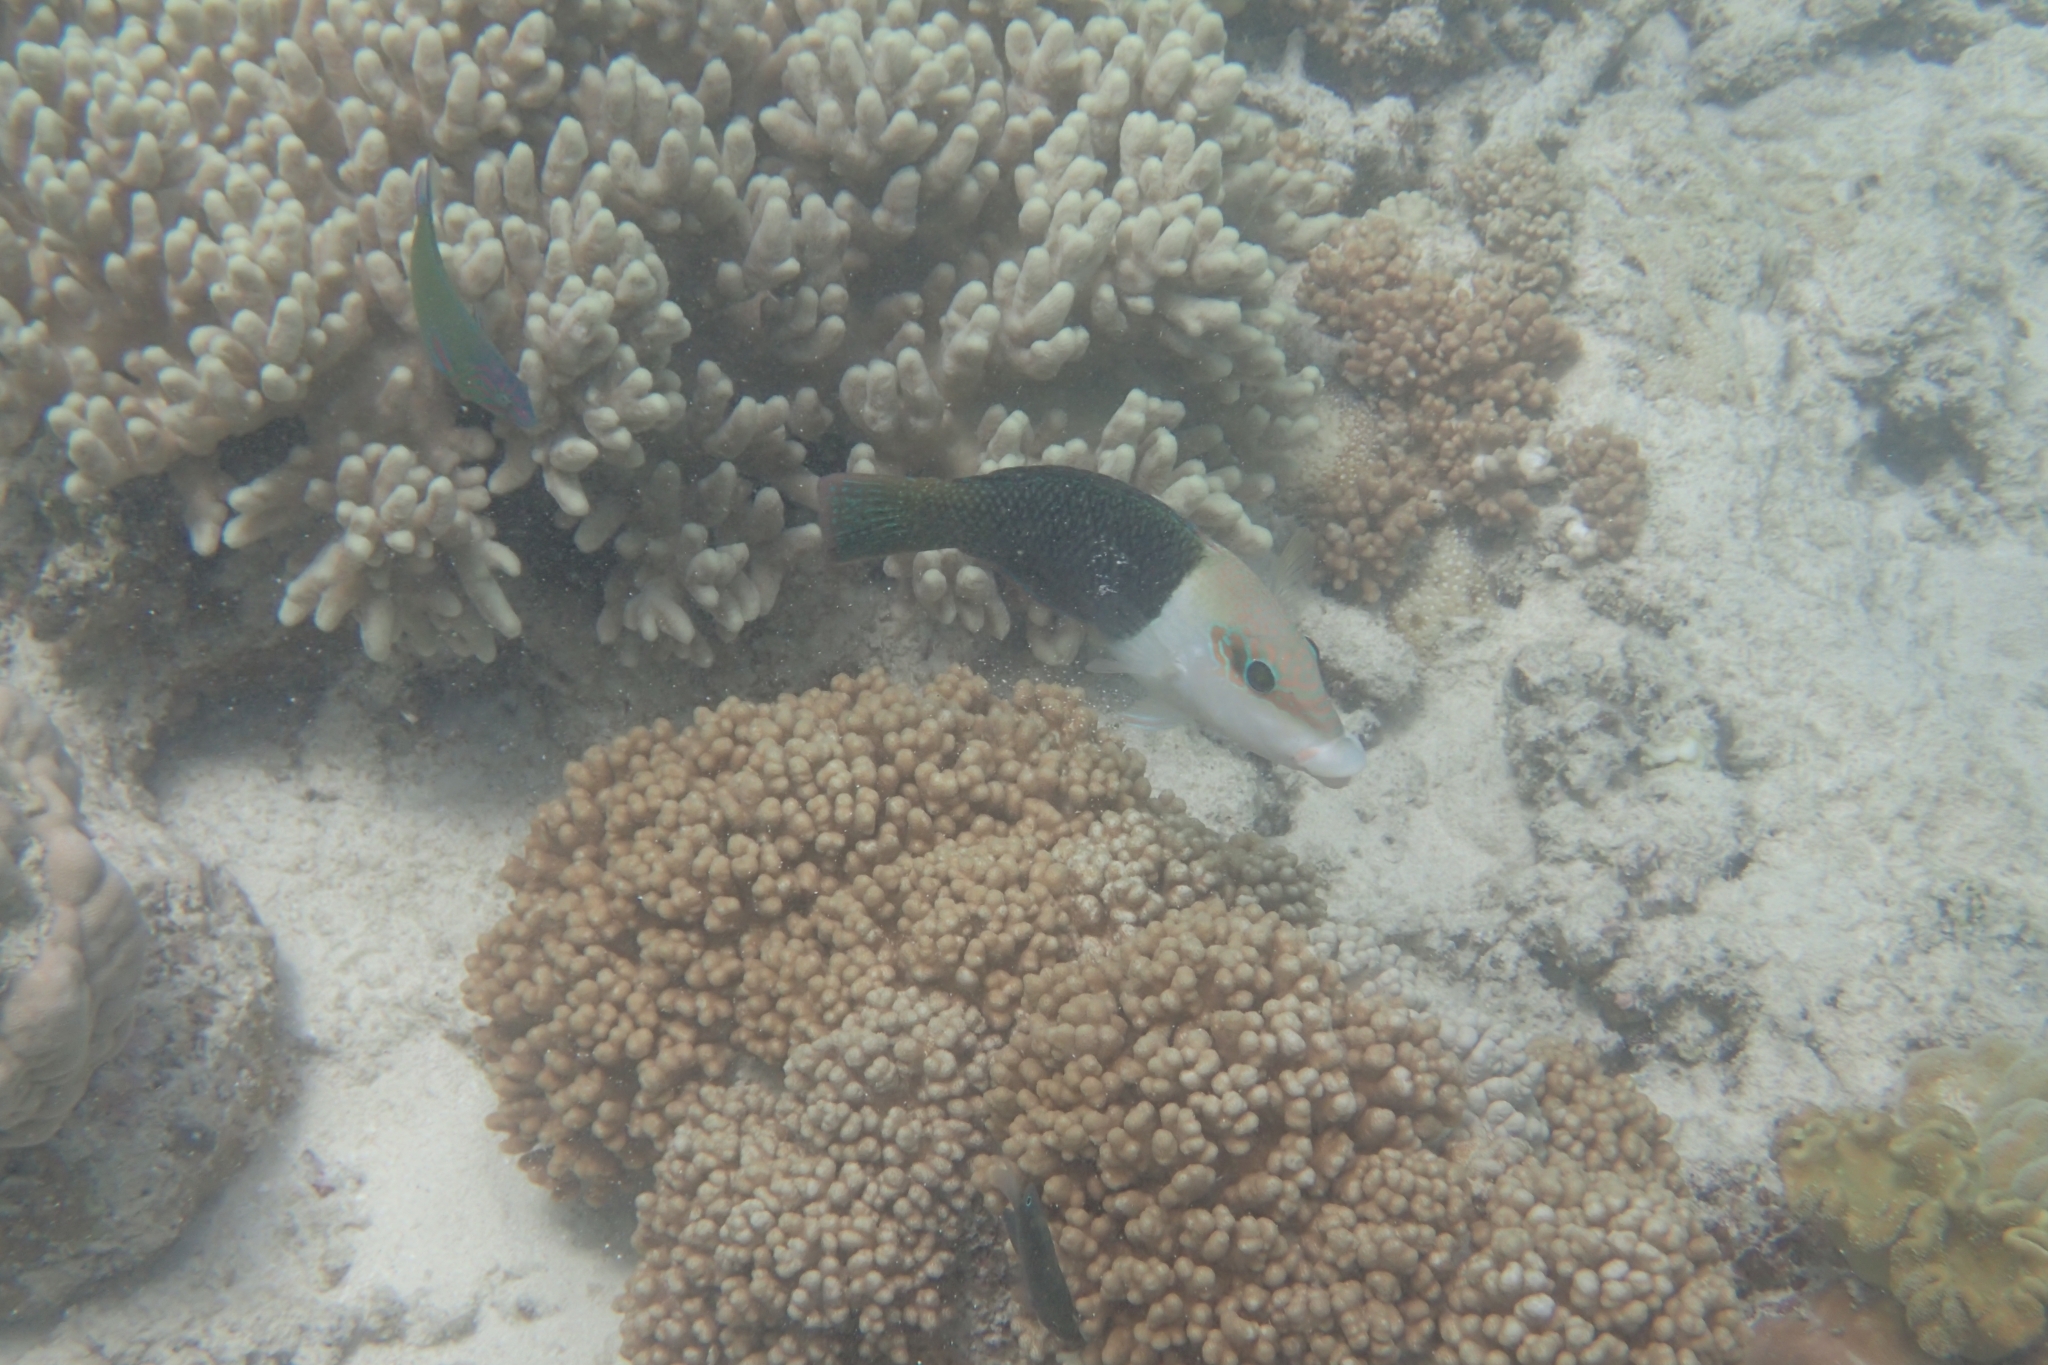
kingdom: Animalia
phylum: Chordata
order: Perciformes
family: Labridae
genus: Hemigymnus
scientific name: Hemigymnus melapterus
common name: Blackeye thicklip
